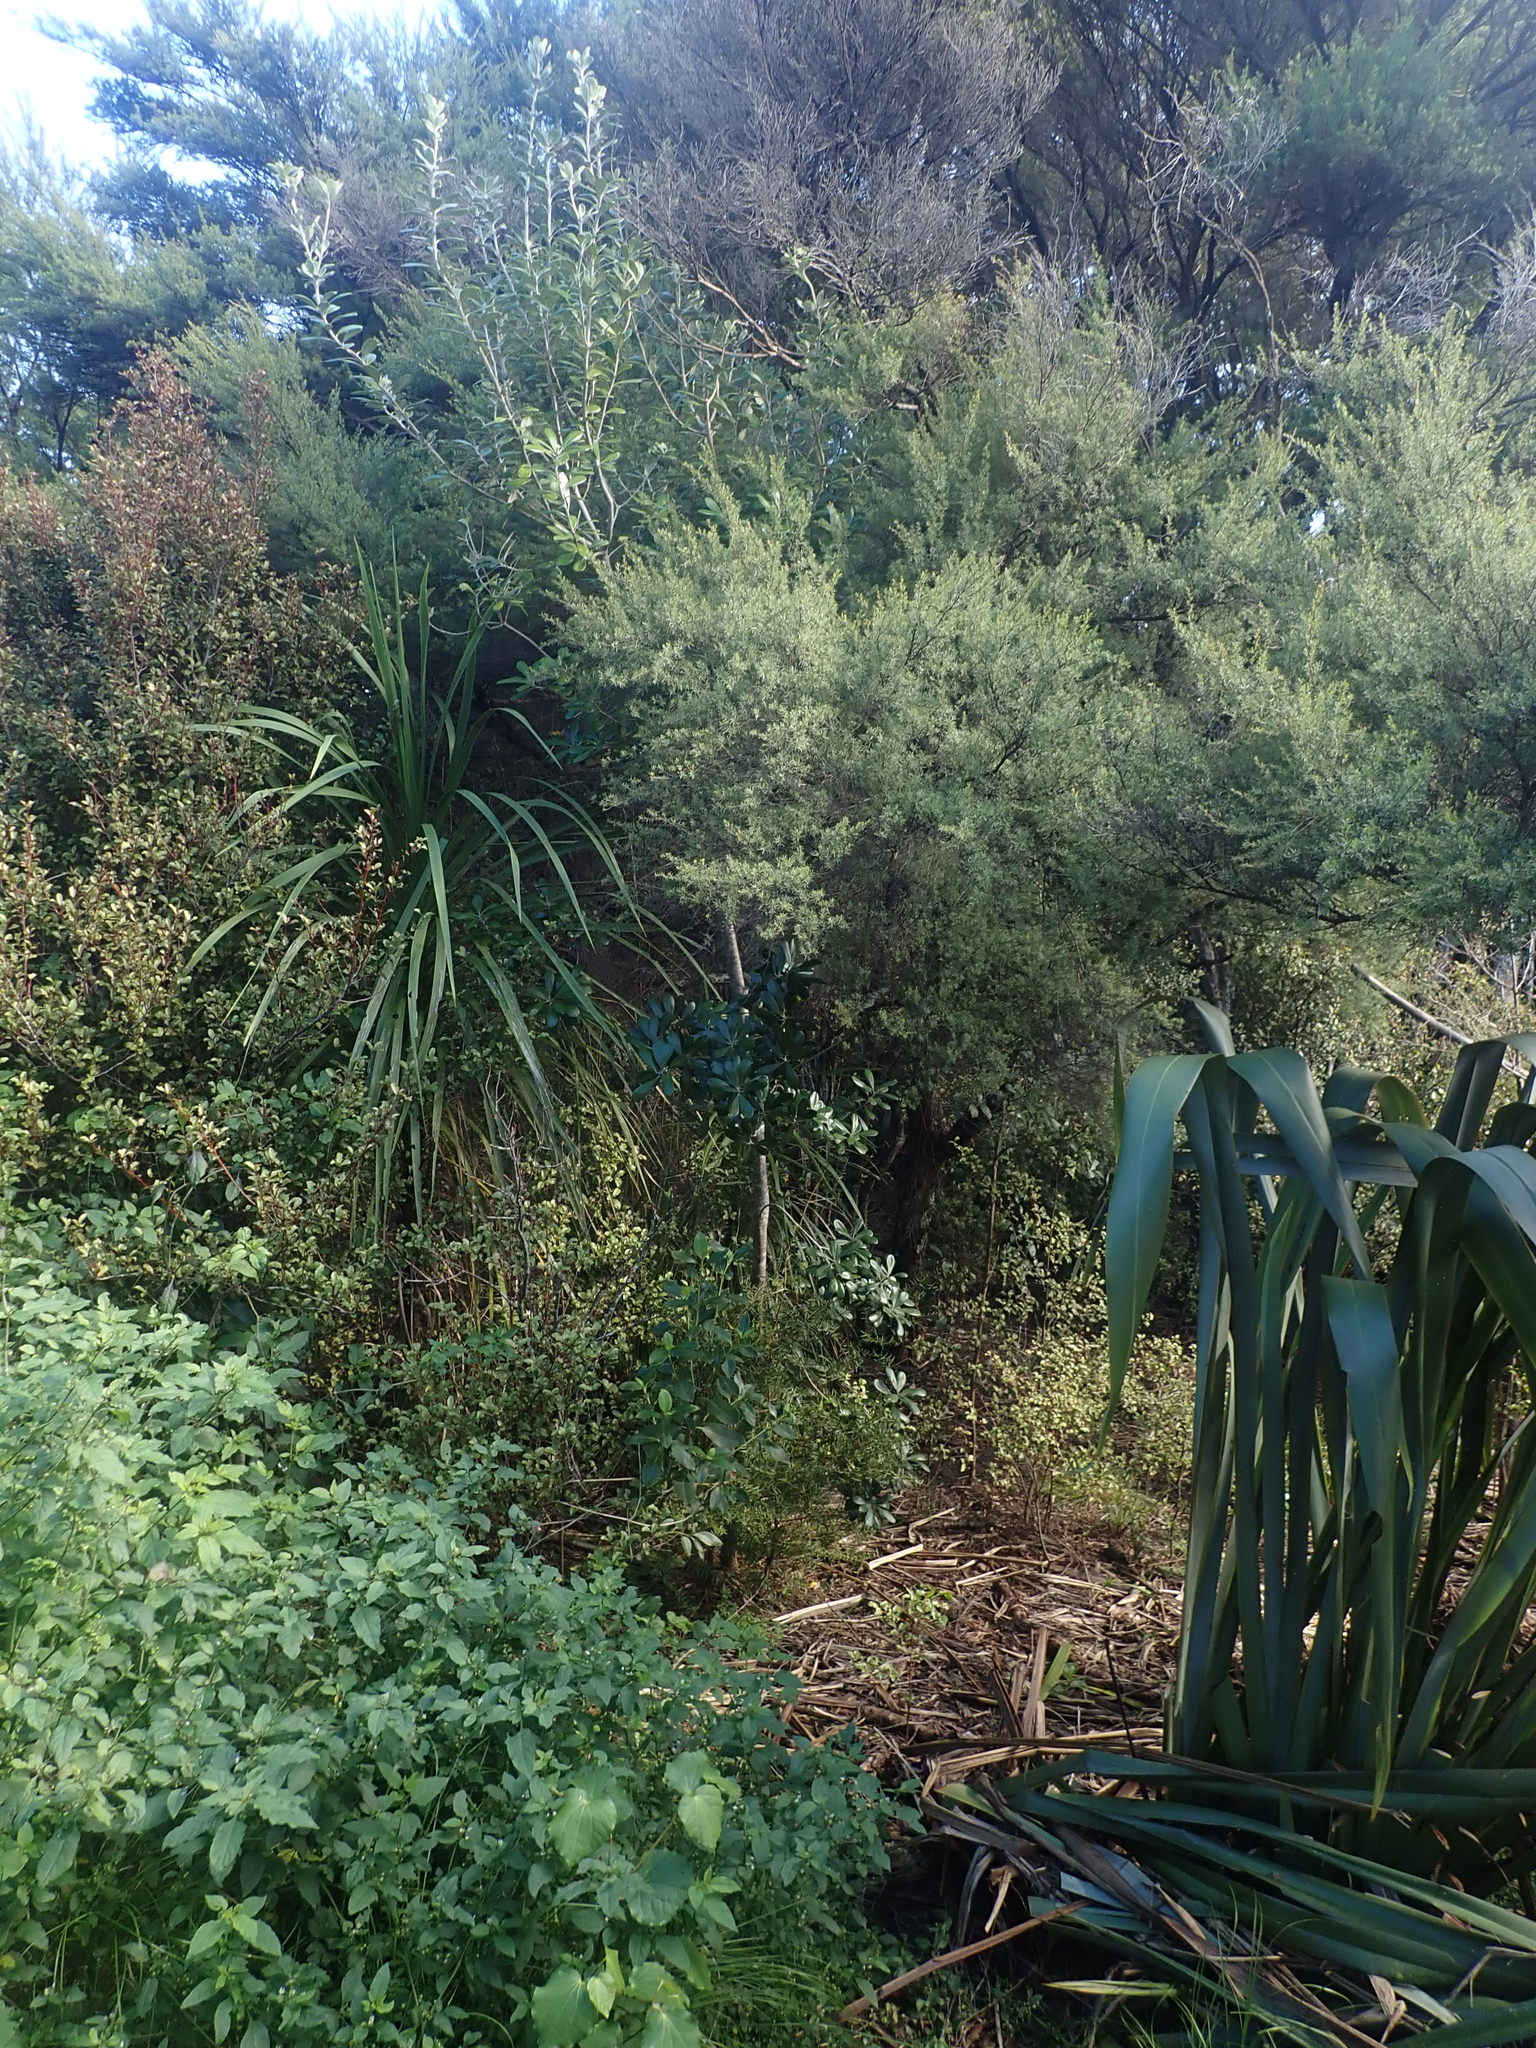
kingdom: Plantae
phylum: Tracheophyta
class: Magnoliopsida
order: Apiales
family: Pittosporaceae
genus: Pittosporum
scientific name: Pittosporum crassifolium
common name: Karo
